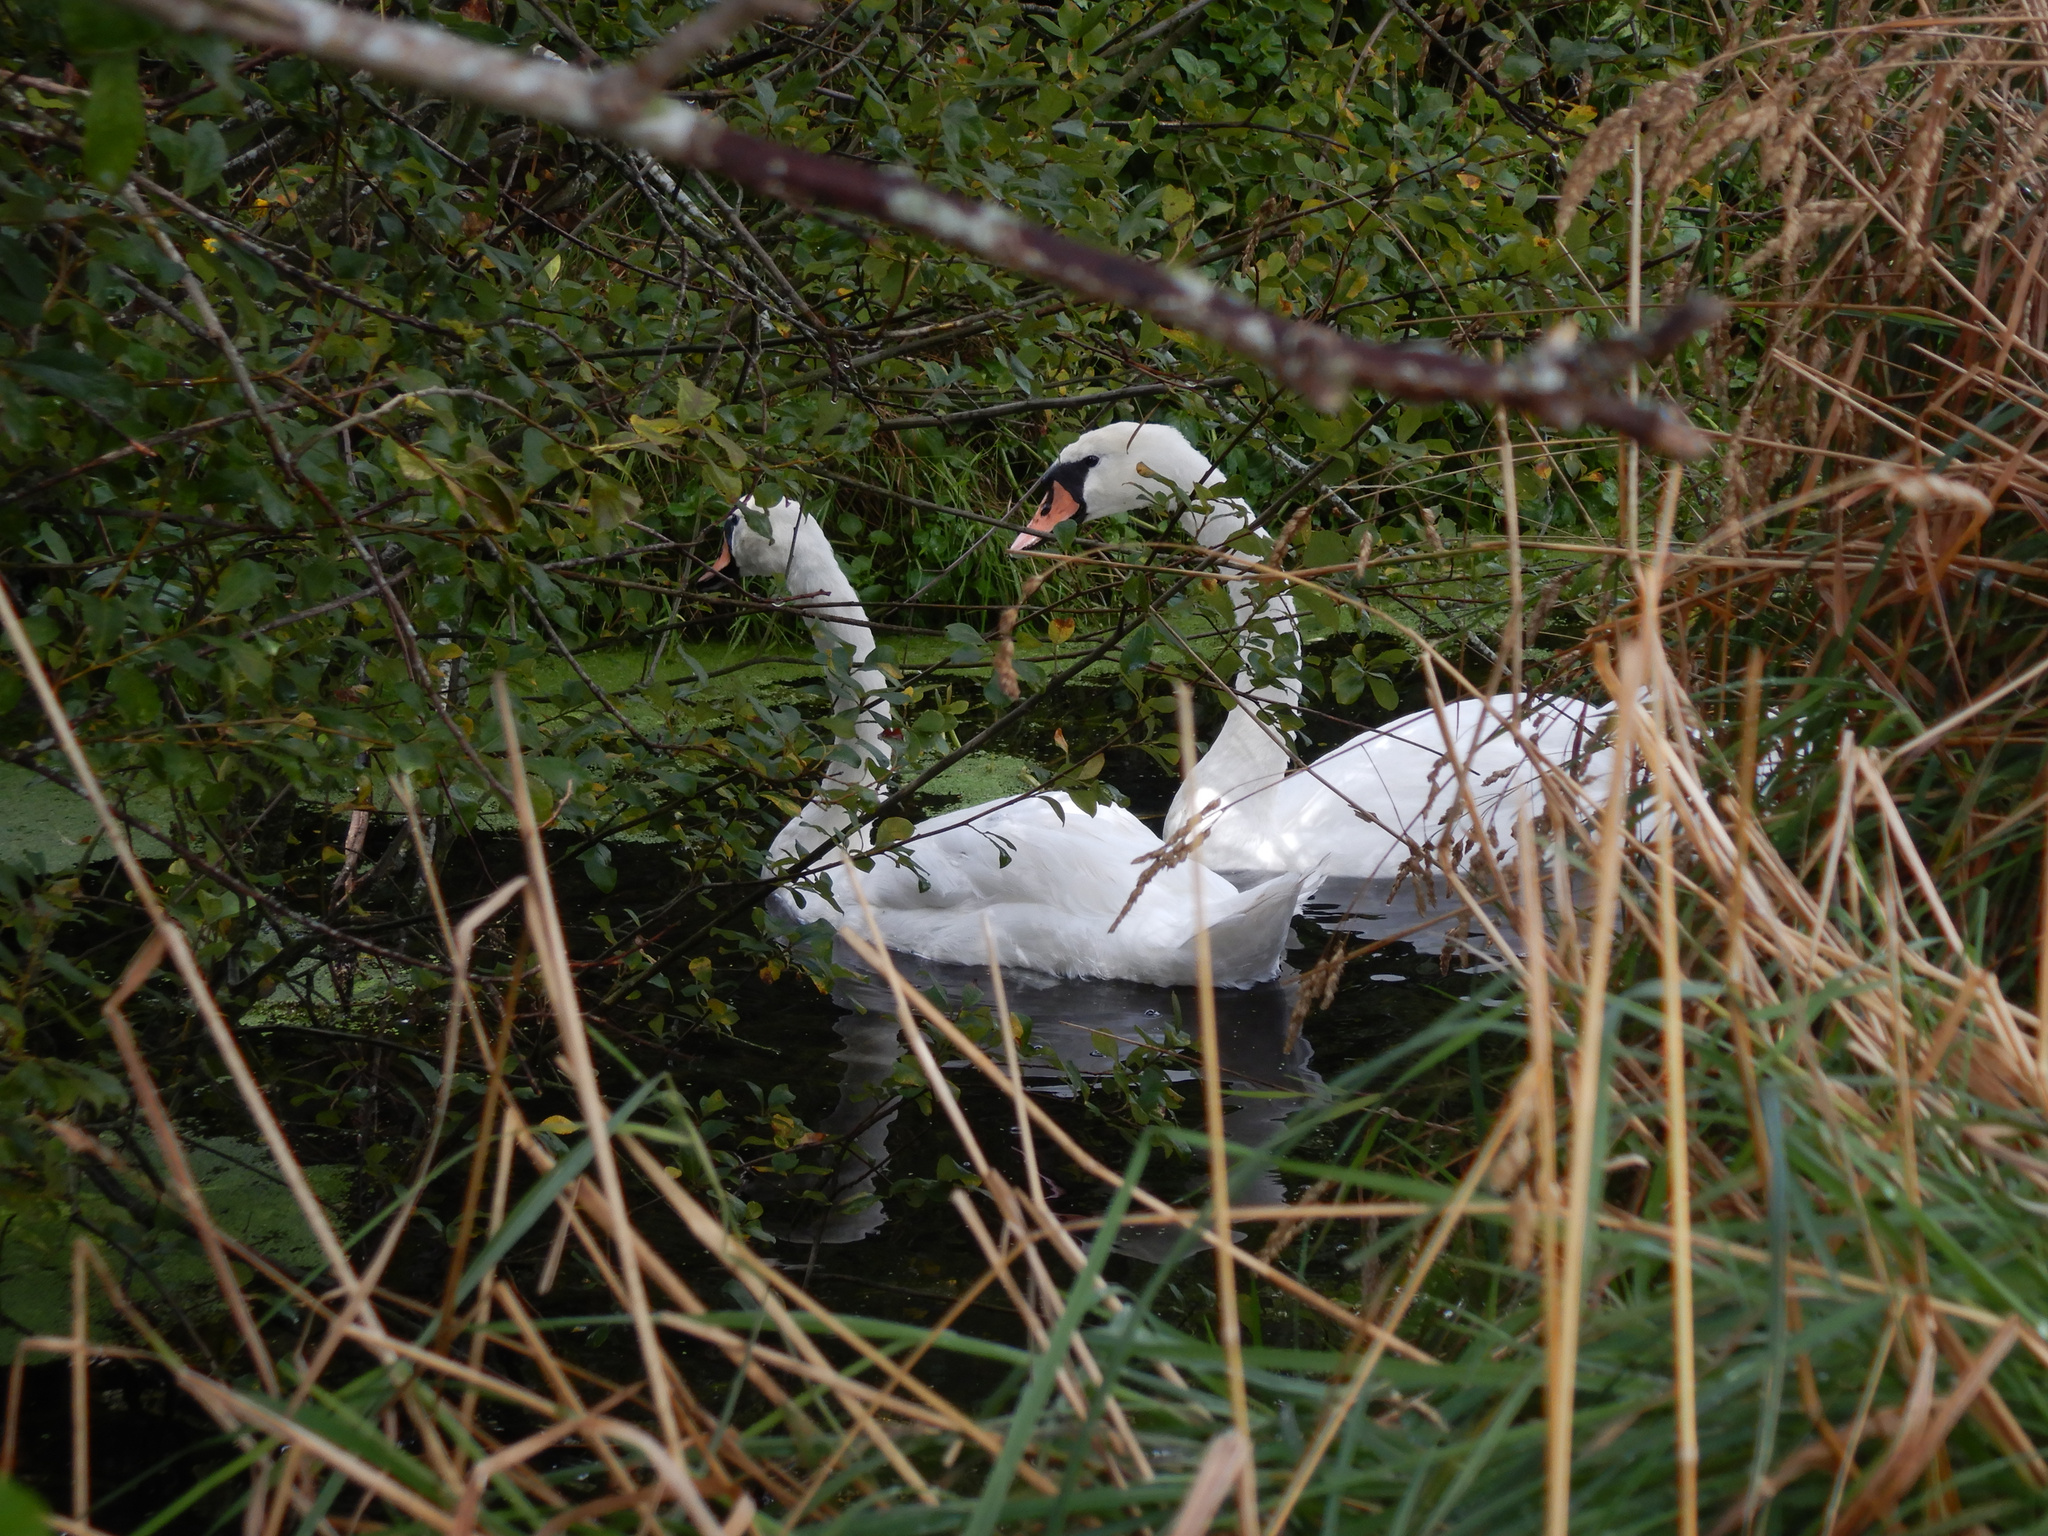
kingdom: Animalia
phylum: Chordata
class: Aves
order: Anseriformes
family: Anatidae
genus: Cygnus
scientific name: Cygnus olor
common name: Mute swan
